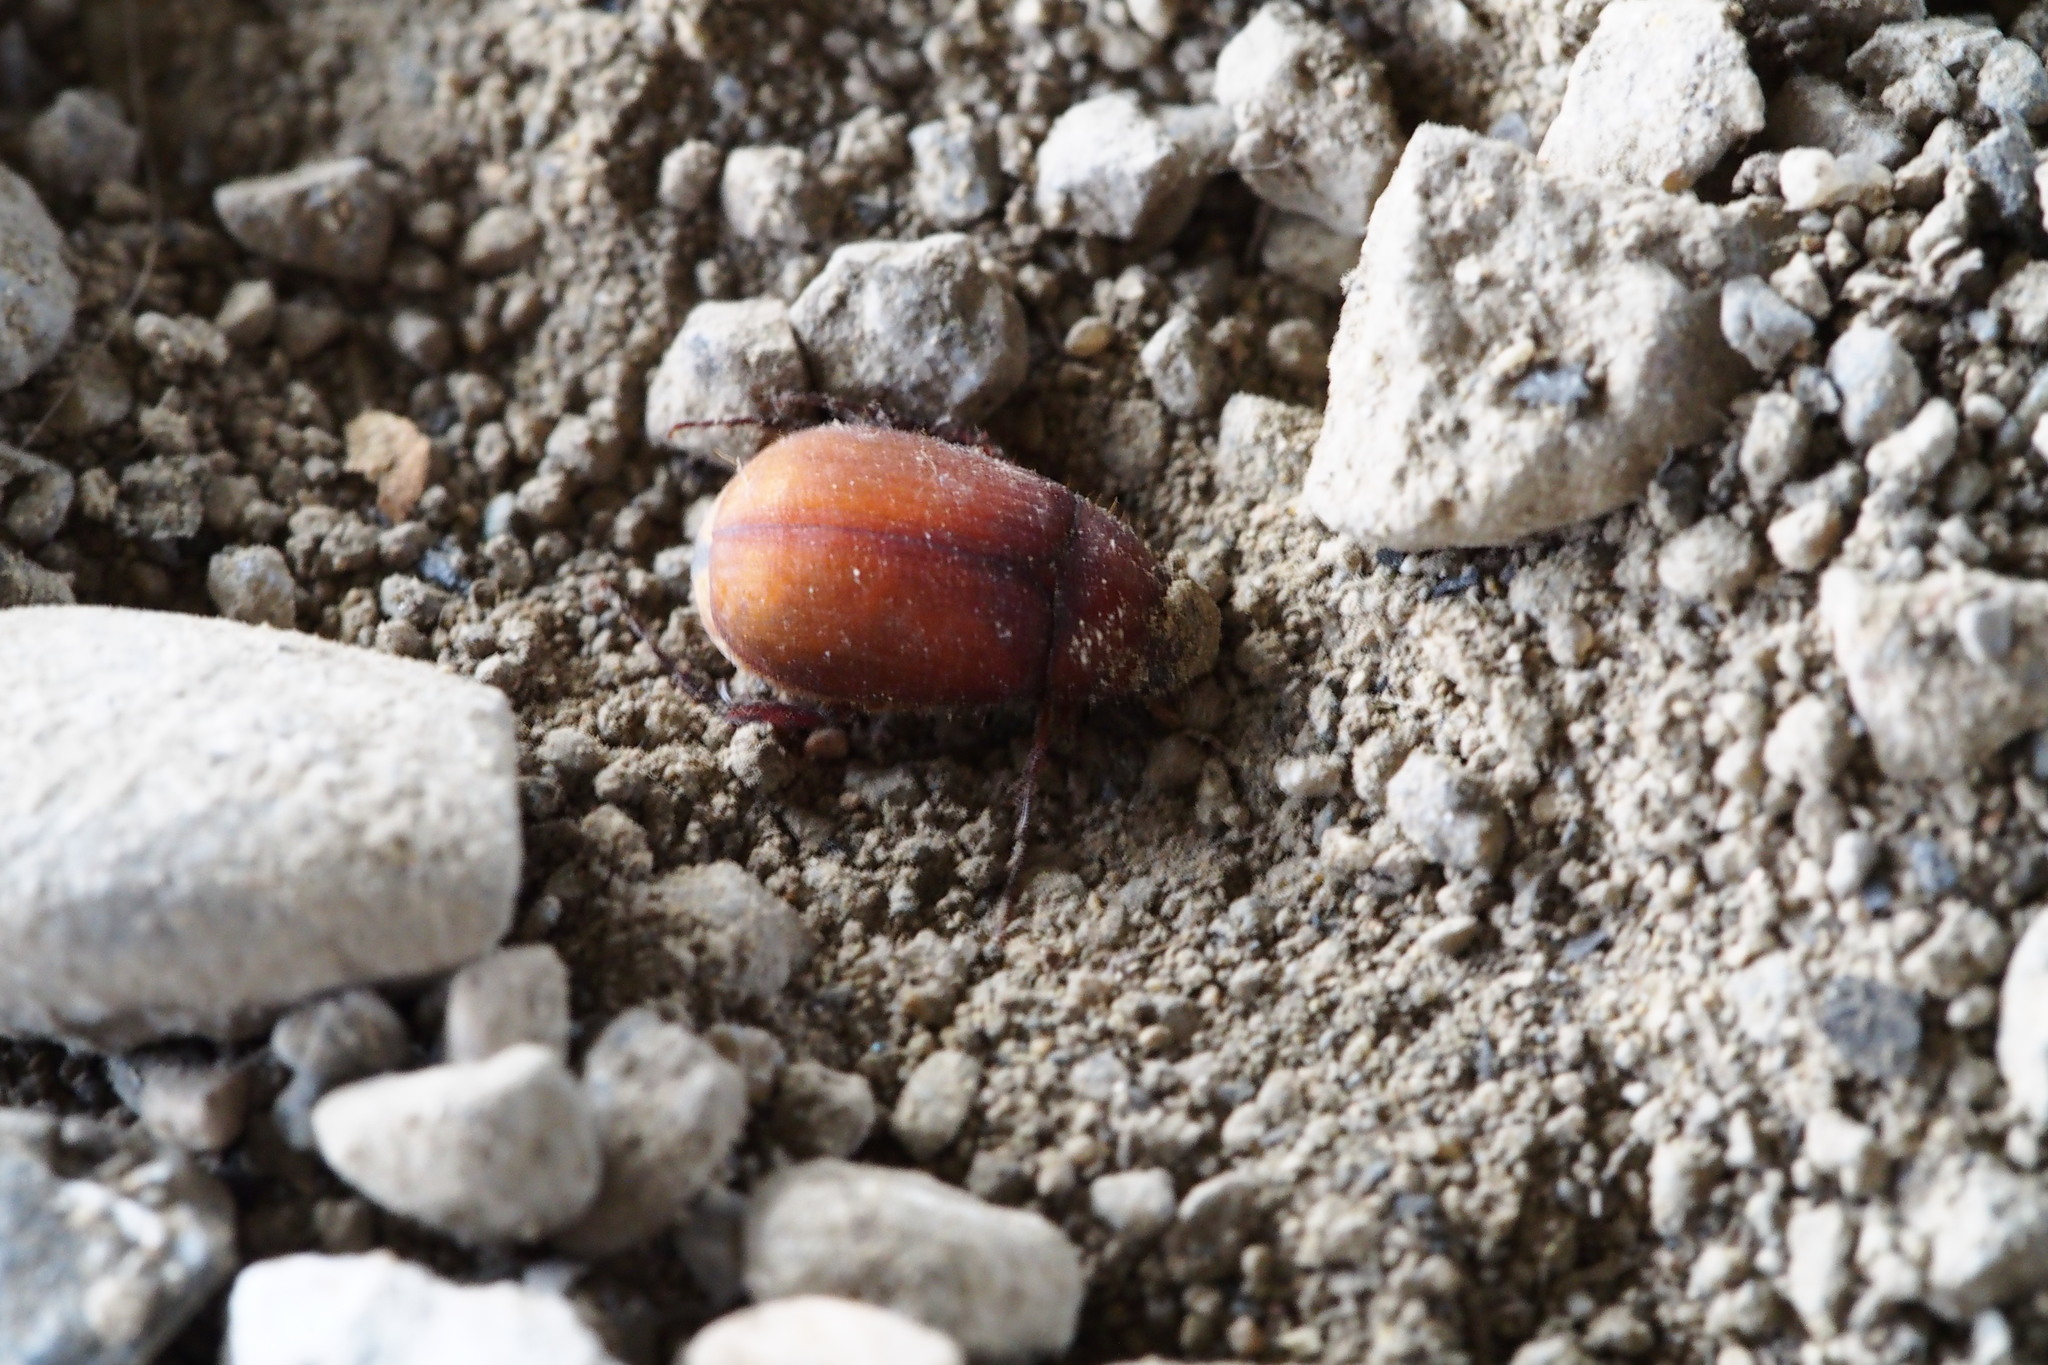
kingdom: Animalia
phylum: Arthropoda
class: Insecta
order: Coleoptera
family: Scarabaeidae
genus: Maladera
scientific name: Maladera formosae
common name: Asiatic garden beetle
